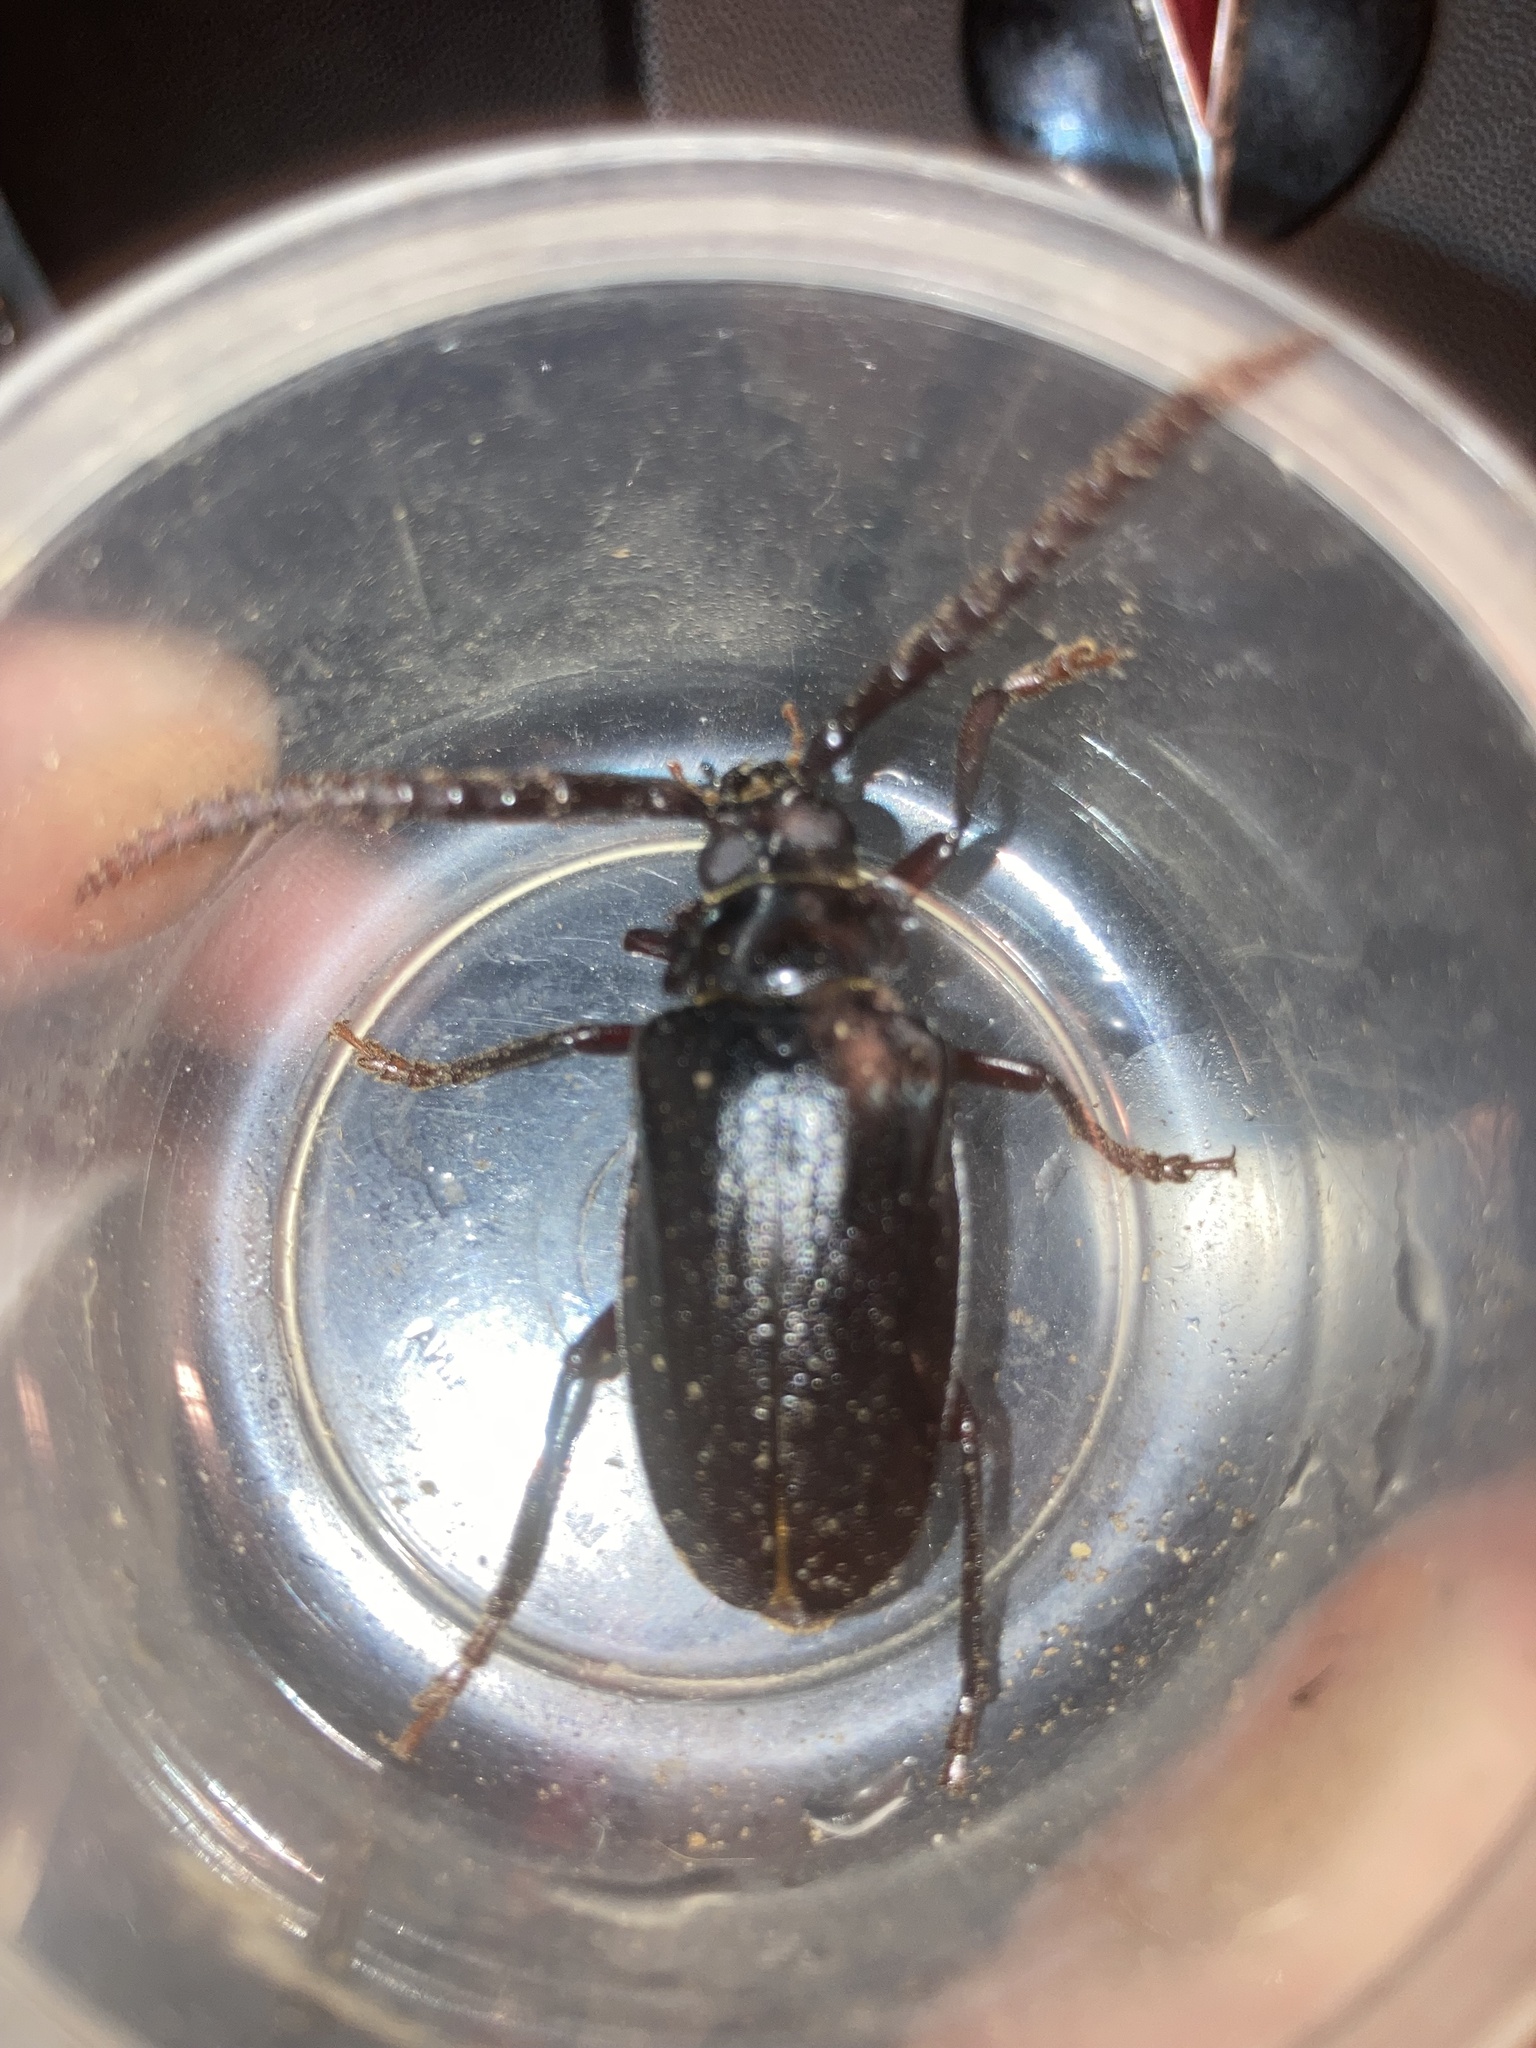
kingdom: Animalia
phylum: Arthropoda
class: Insecta
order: Coleoptera
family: Cerambycidae
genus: Prionus
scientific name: Prionus imbricornis
